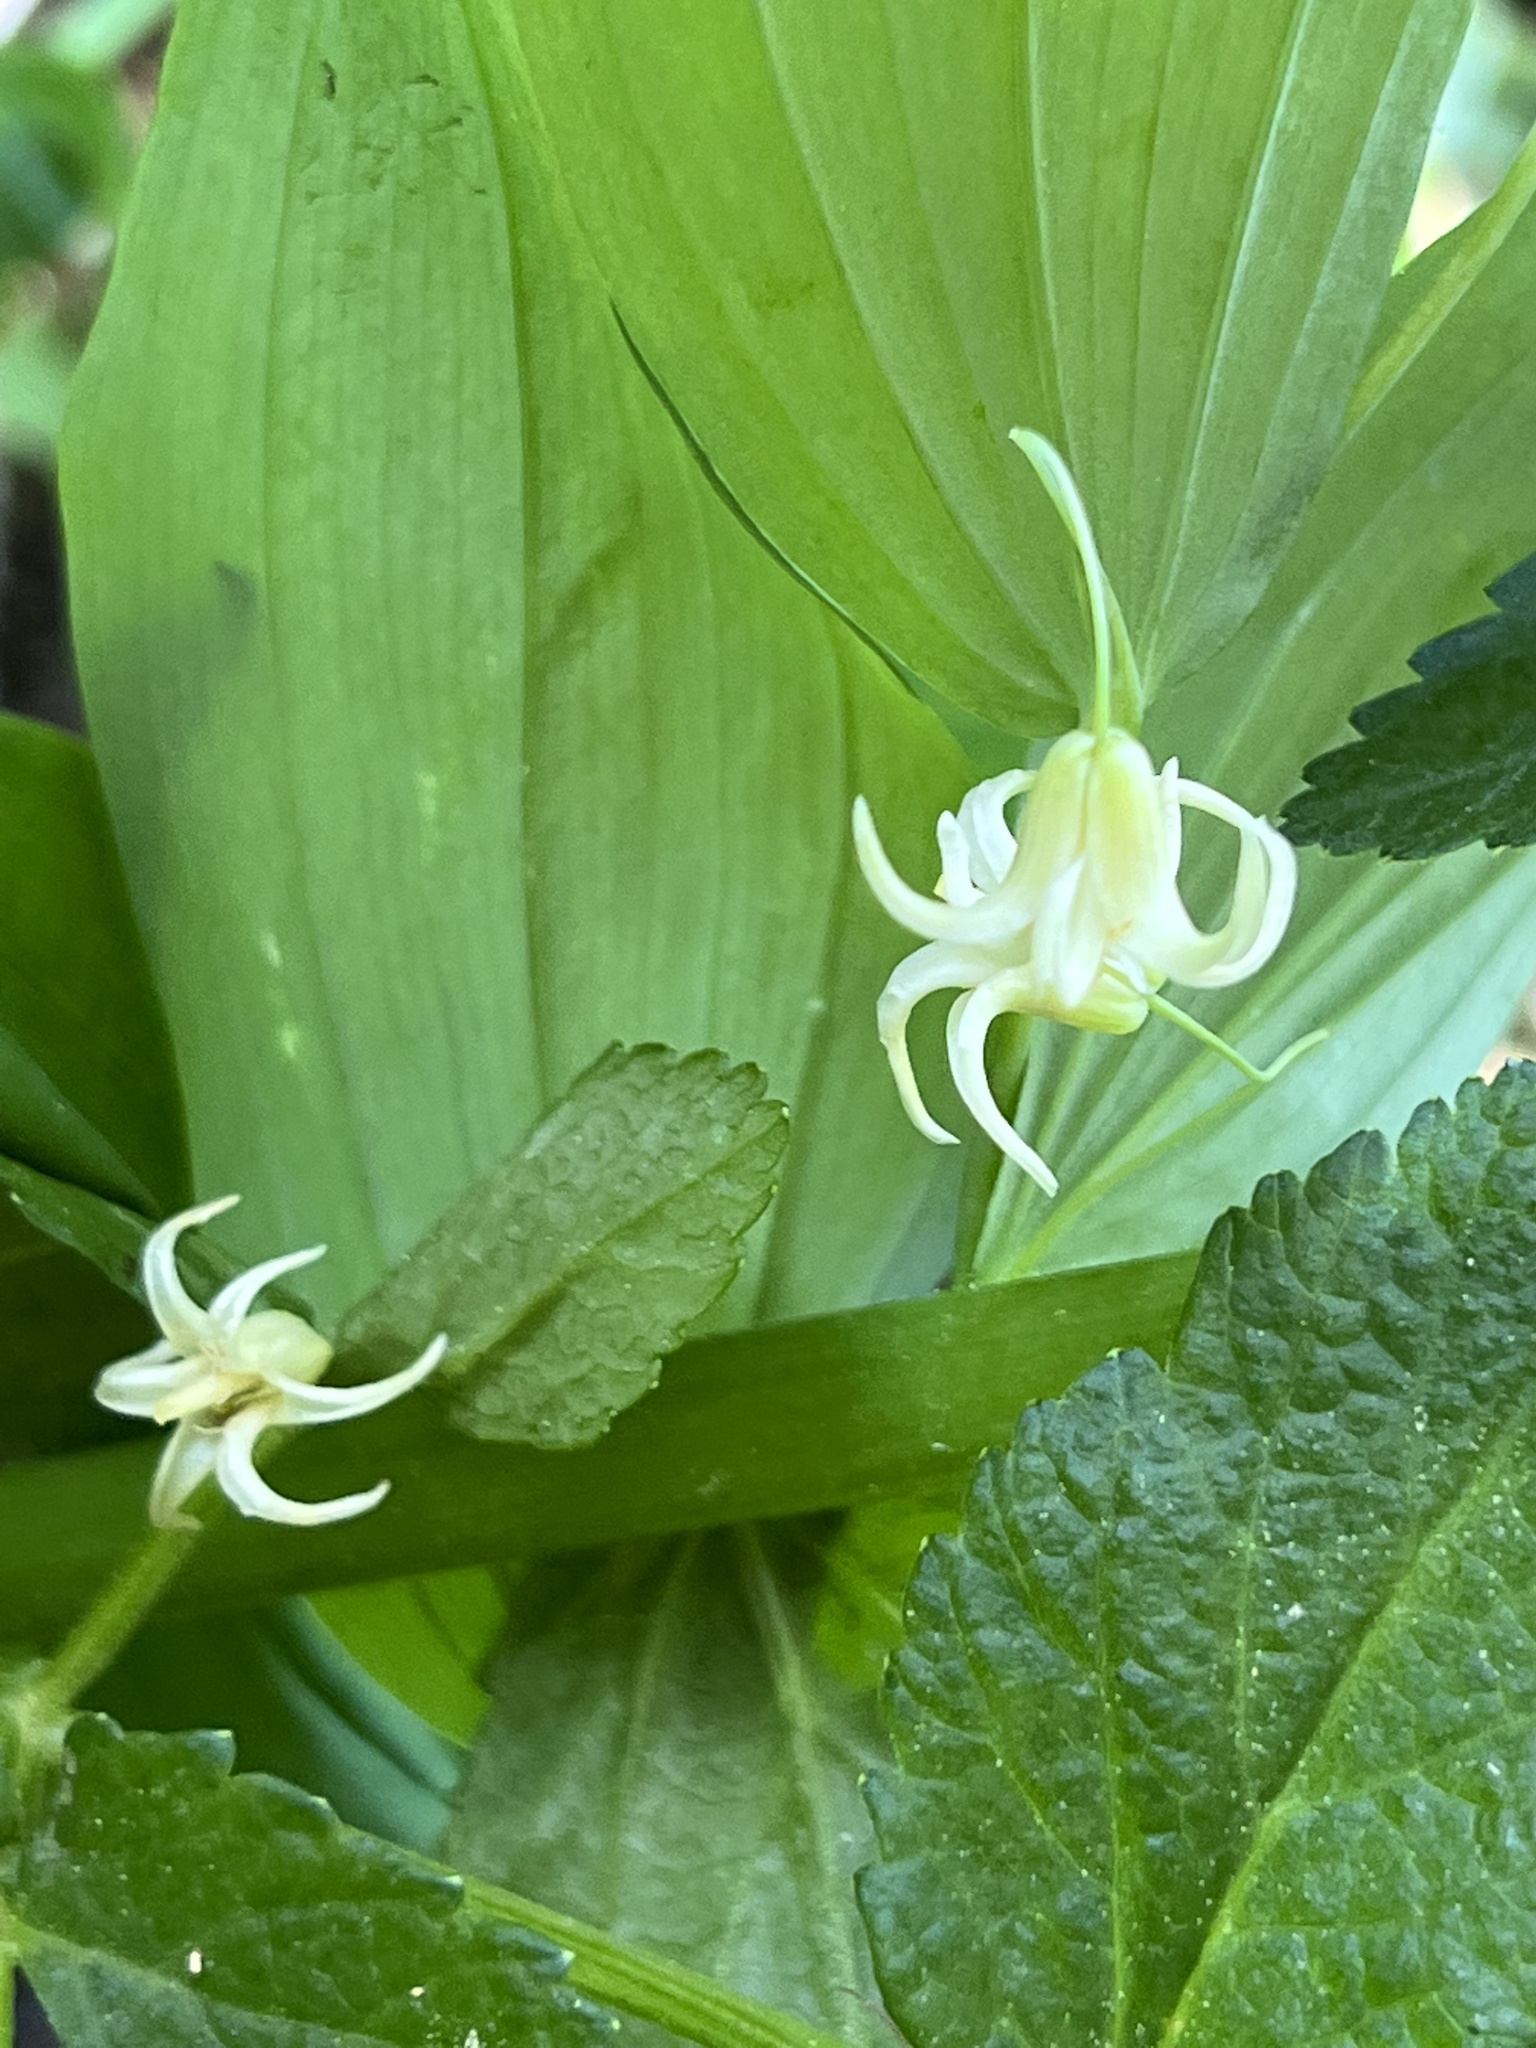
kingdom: Plantae
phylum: Tracheophyta
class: Liliopsida
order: Liliales
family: Liliaceae
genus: Streptopus
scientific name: Streptopus amplexifolius
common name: Clasp twisted stalk
